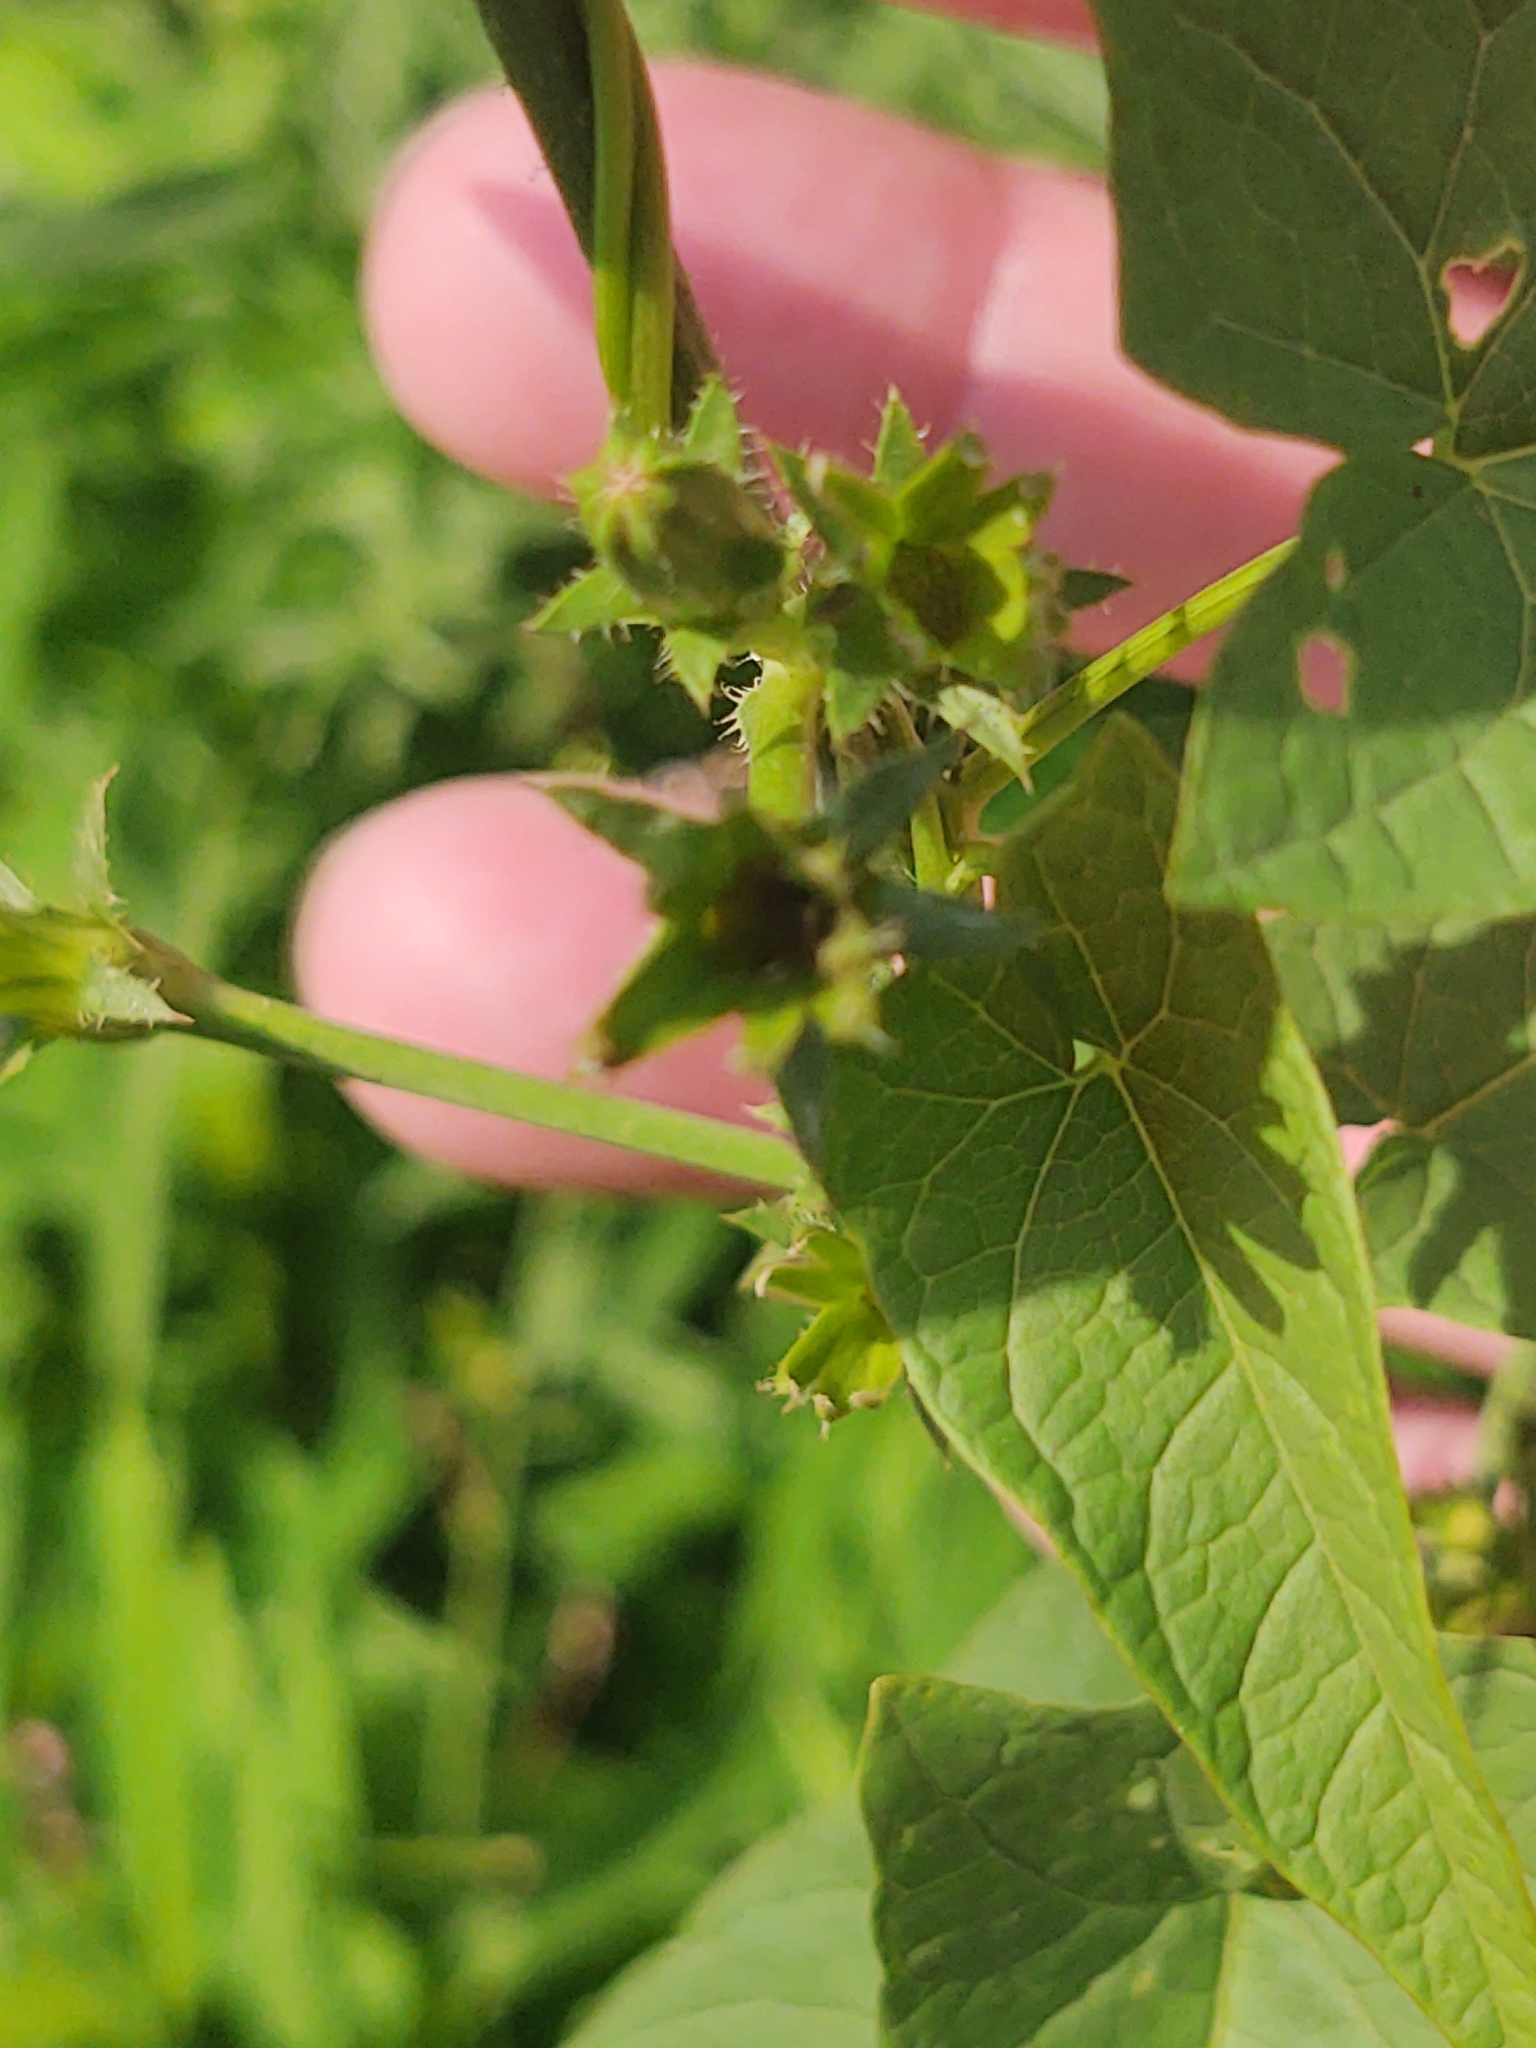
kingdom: Plantae
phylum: Tracheophyta
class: Magnoliopsida
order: Asterales
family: Asteraceae
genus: Cichorium
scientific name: Cichorium intybus
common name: Chicory
